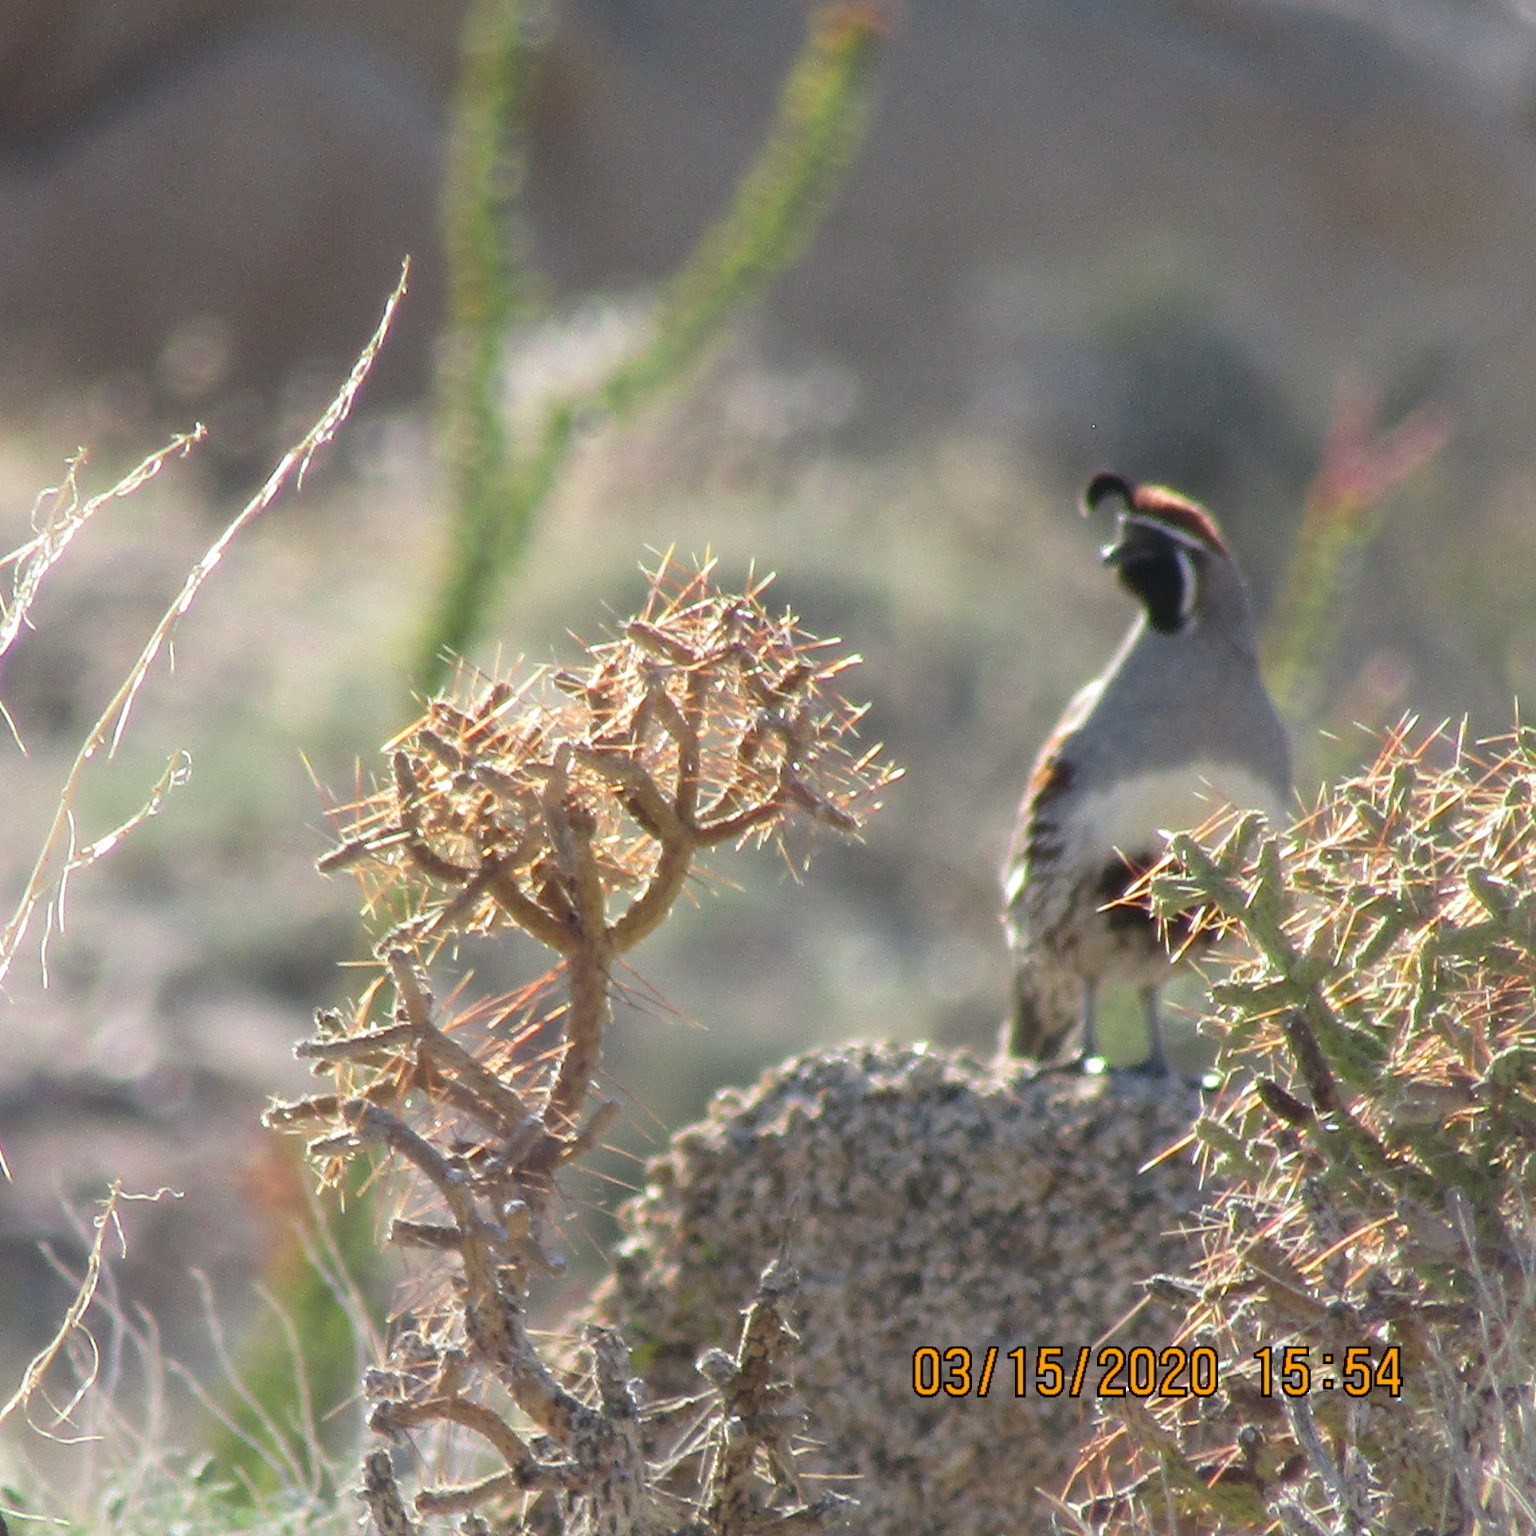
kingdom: Animalia
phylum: Chordata
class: Aves
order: Galliformes
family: Odontophoridae
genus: Callipepla
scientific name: Callipepla gambelii
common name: Gambel's quail
